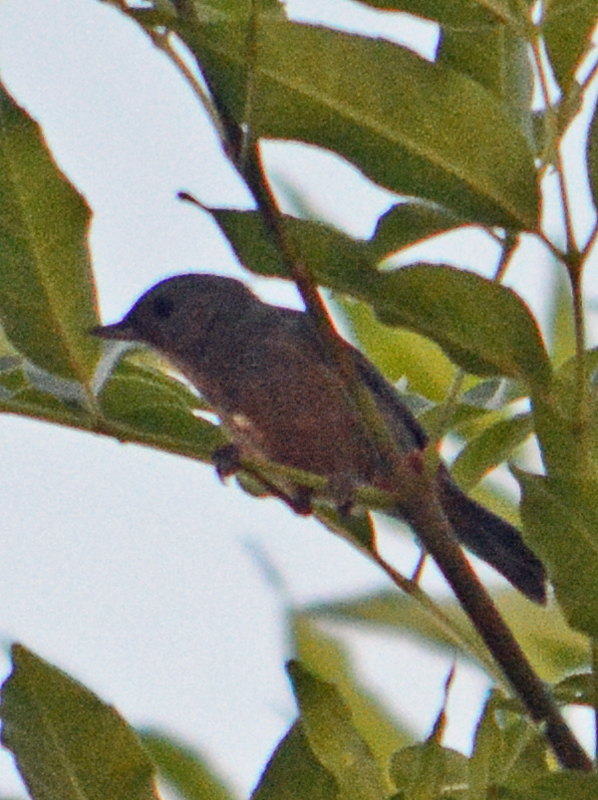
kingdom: Animalia
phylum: Chordata
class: Aves
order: Passeriformes
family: Thraupidae
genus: Diglossa
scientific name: Diglossa baritula
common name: Cinnamon-bellied flowerpiercer
